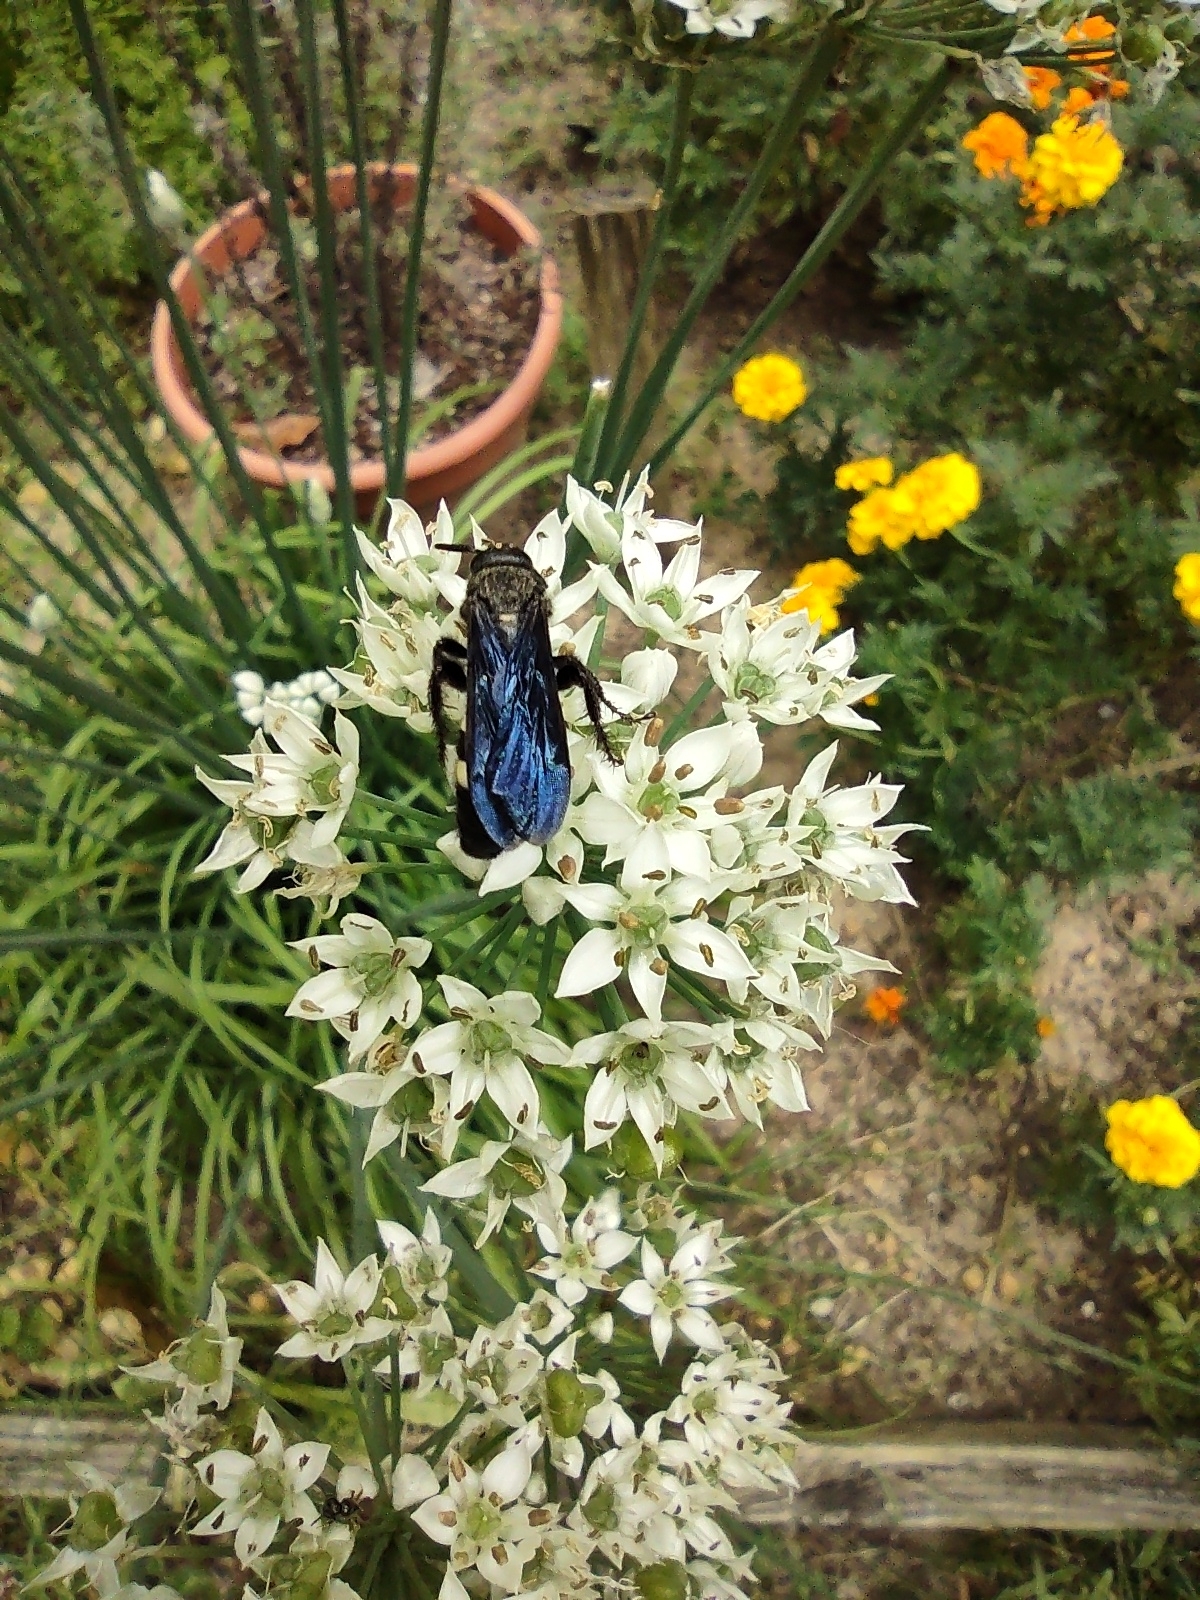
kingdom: Animalia
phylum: Arthropoda
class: Insecta
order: Hymenoptera
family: Scoliidae
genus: Scolia
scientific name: Scolia bicincta
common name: Double-banded scoliid wasp
